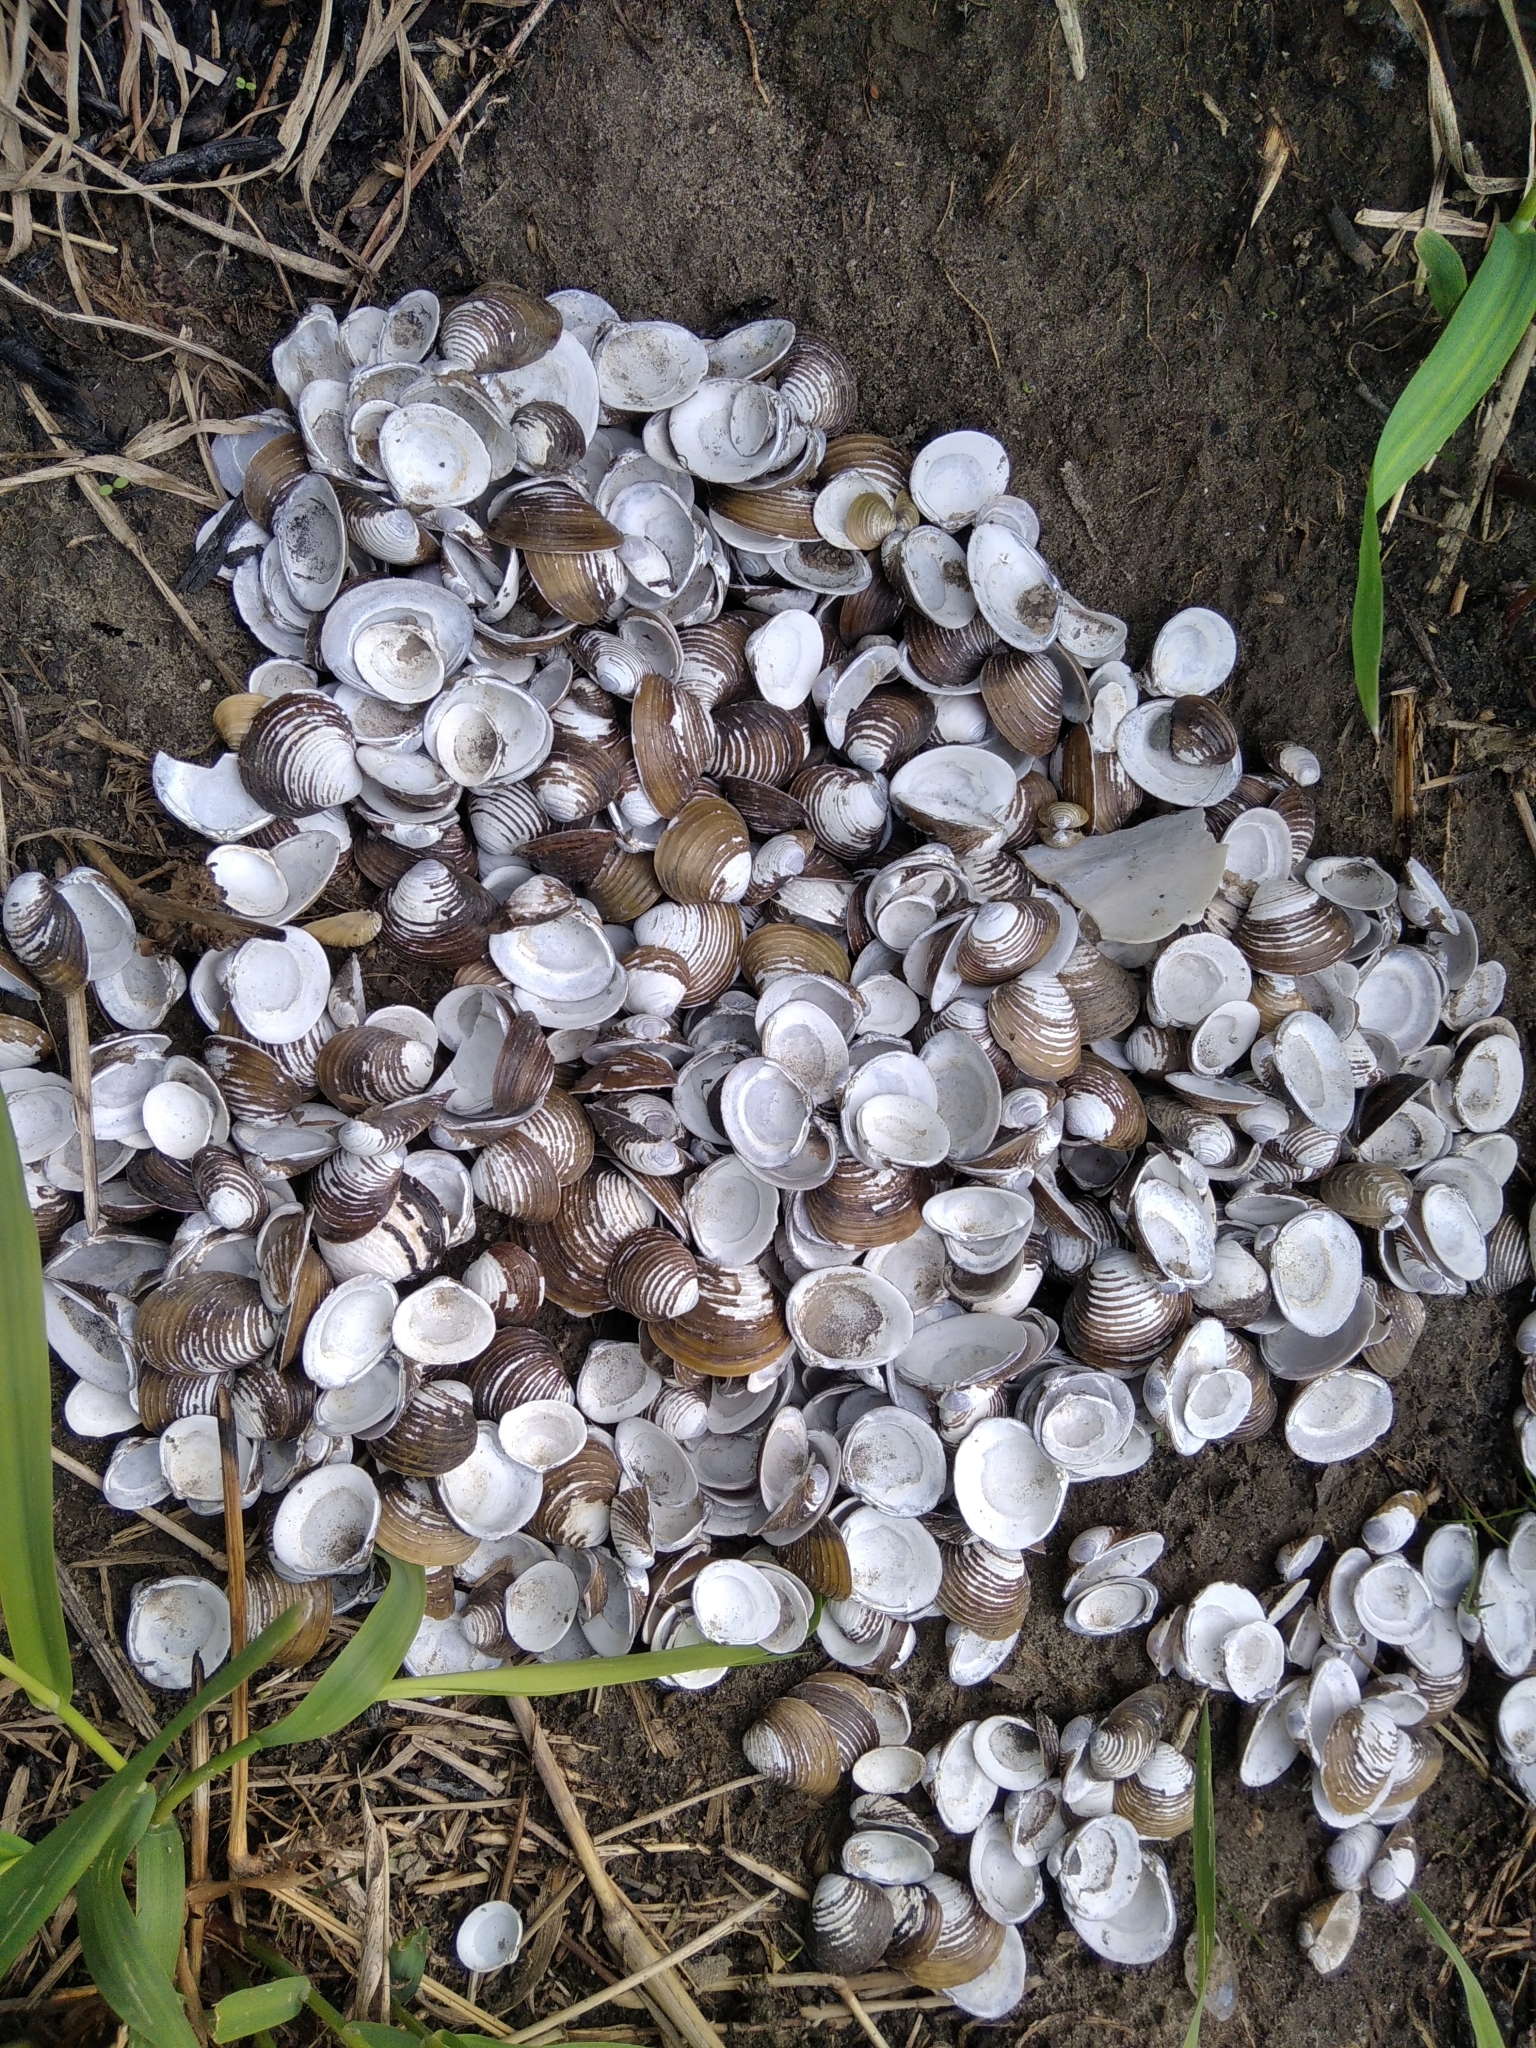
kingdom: Animalia
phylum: Mollusca
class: Bivalvia
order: Venerida
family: Cyrenidae
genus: Corbicula
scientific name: Corbicula fluminea
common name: Asian clam
